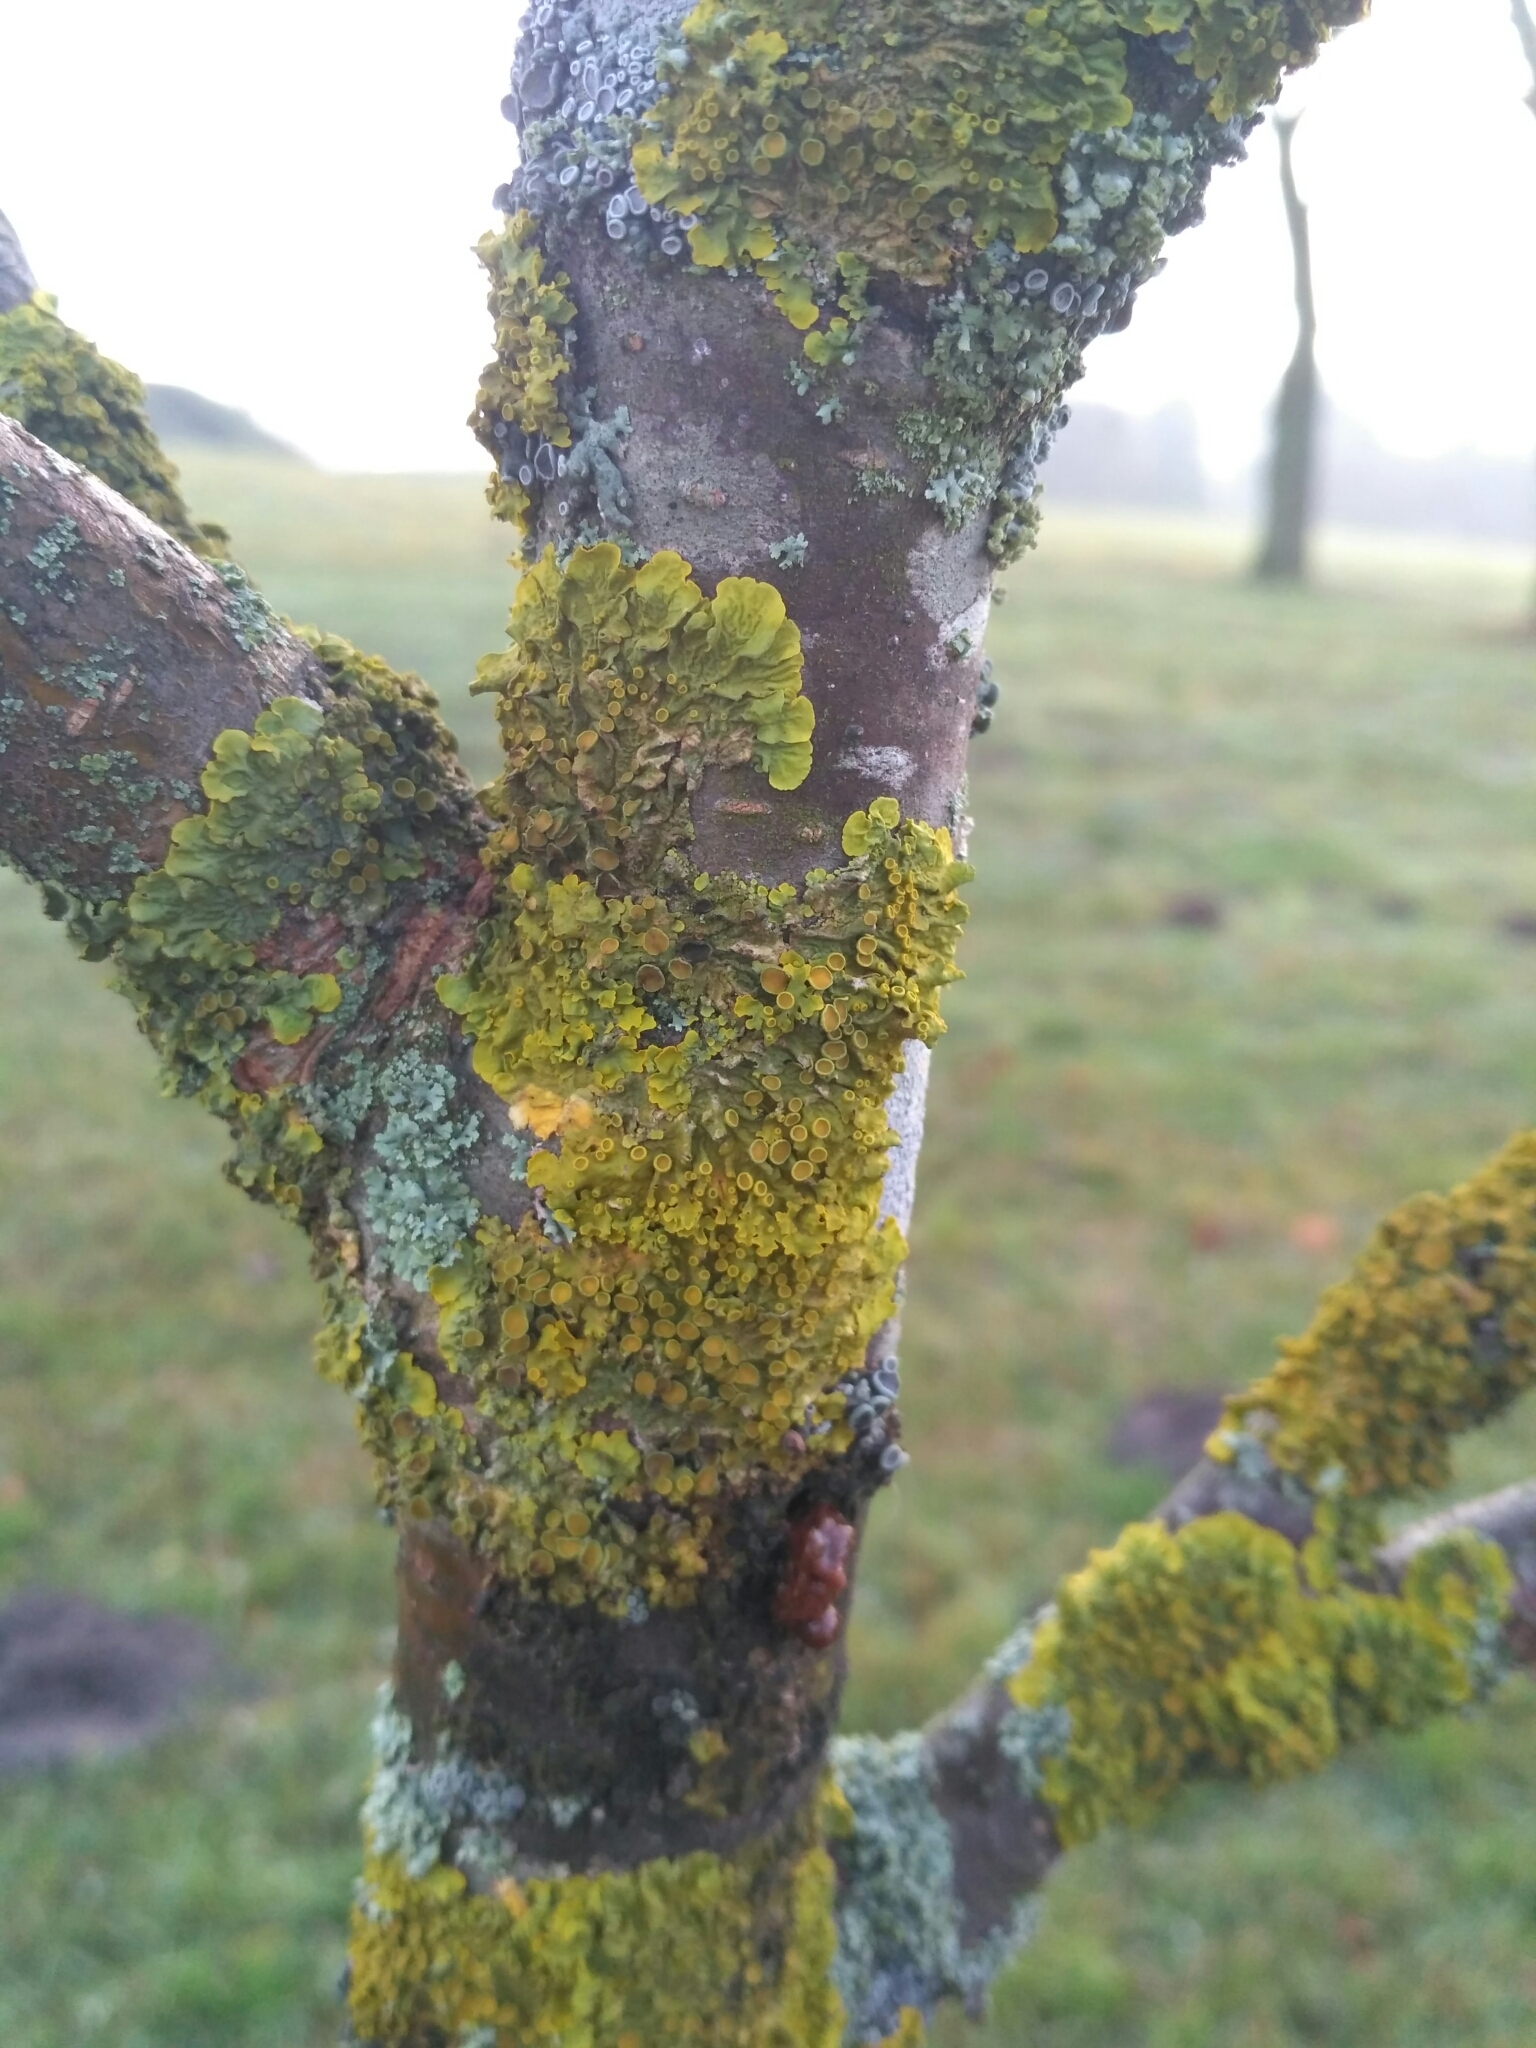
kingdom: Fungi
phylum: Ascomycota
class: Lecanoromycetes
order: Teloschistales
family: Teloschistaceae
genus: Xanthoria
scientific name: Xanthoria parietina
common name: Common orange lichen
